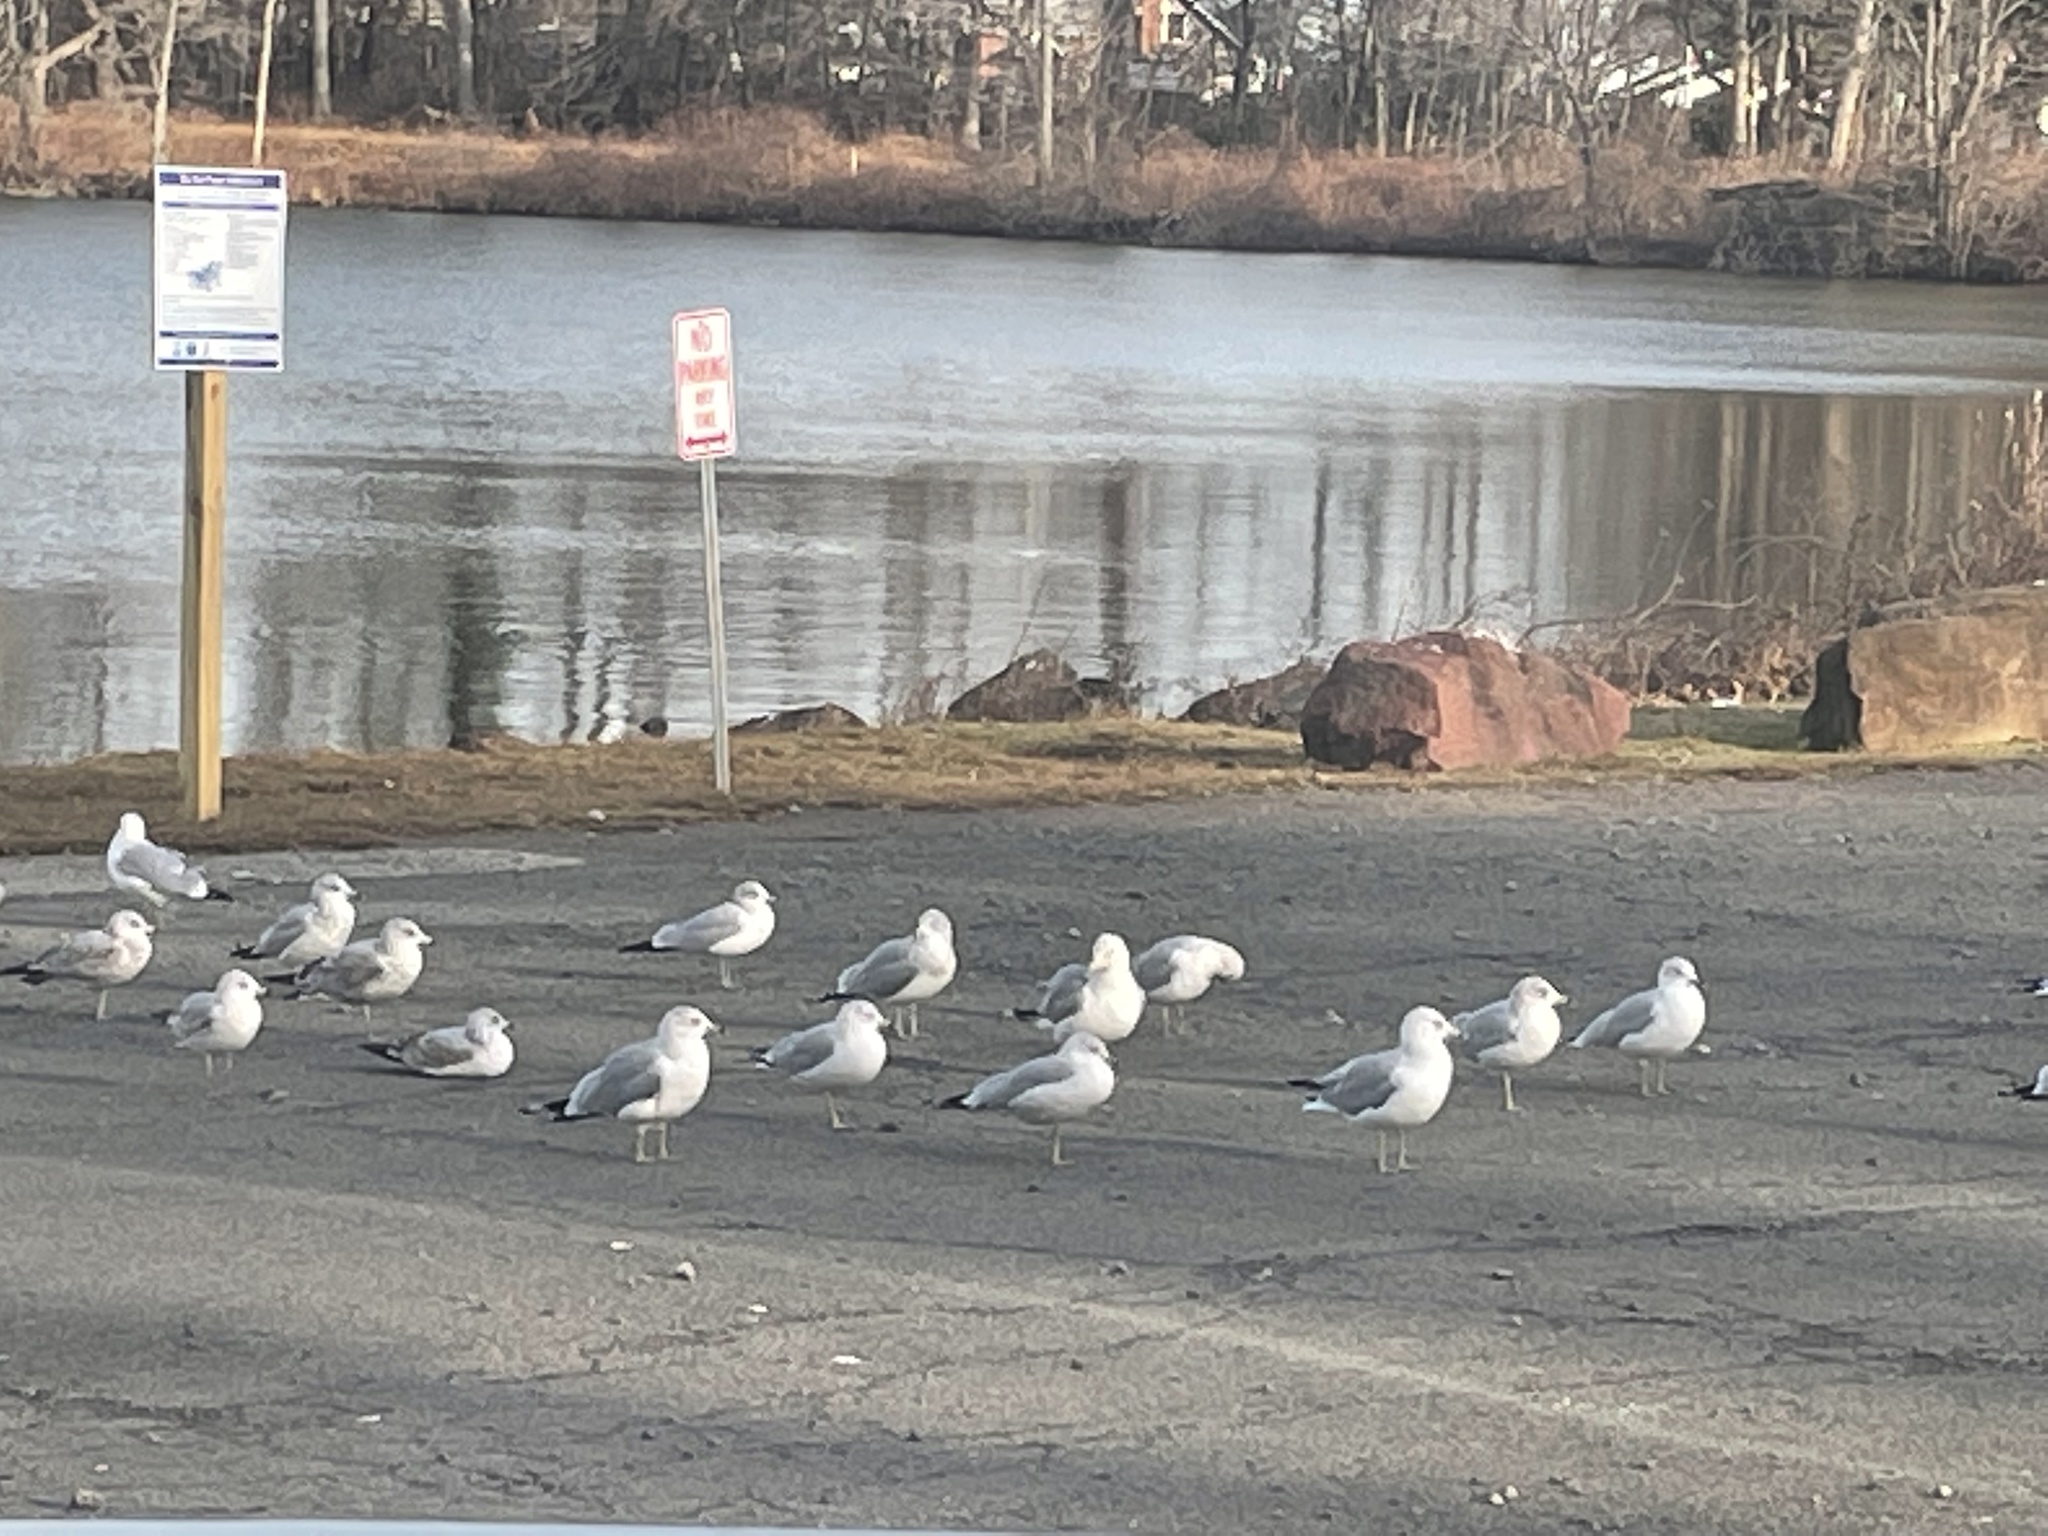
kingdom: Animalia
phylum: Chordata
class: Aves
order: Charadriiformes
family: Laridae
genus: Larus
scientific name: Larus delawarensis
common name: Ring-billed gull
